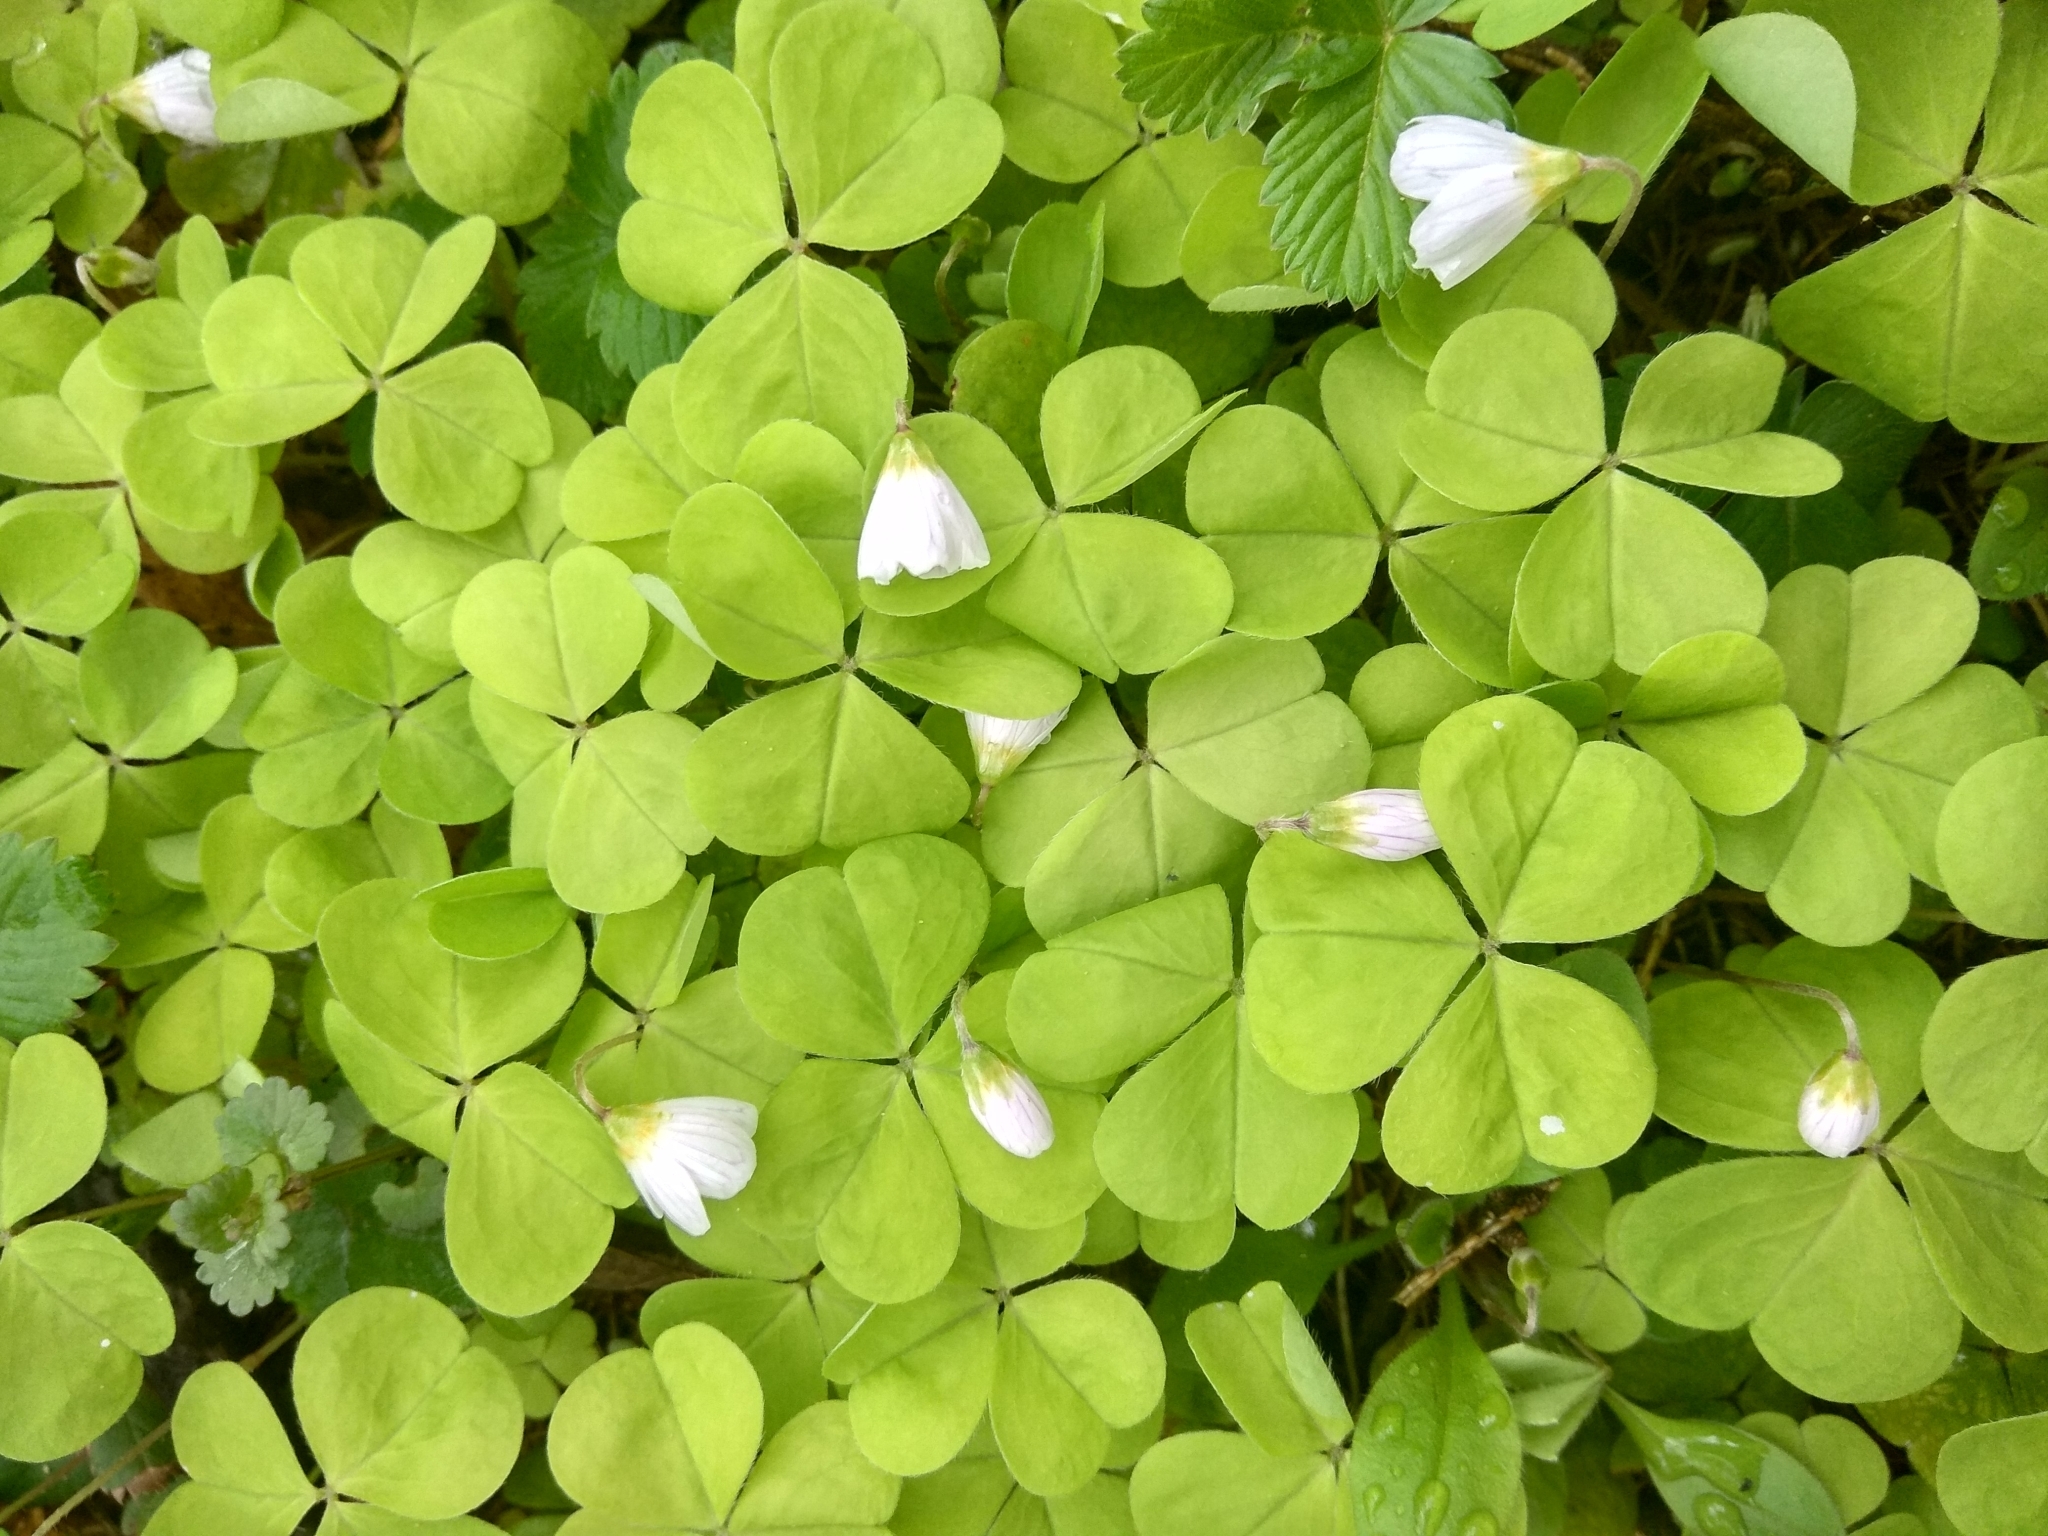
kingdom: Plantae
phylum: Tracheophyta
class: Magnoliopsida
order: Oxalidales
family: Oxalidaceae
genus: Oxalis
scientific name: Oxalis acetosella
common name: Wood-sorrel
